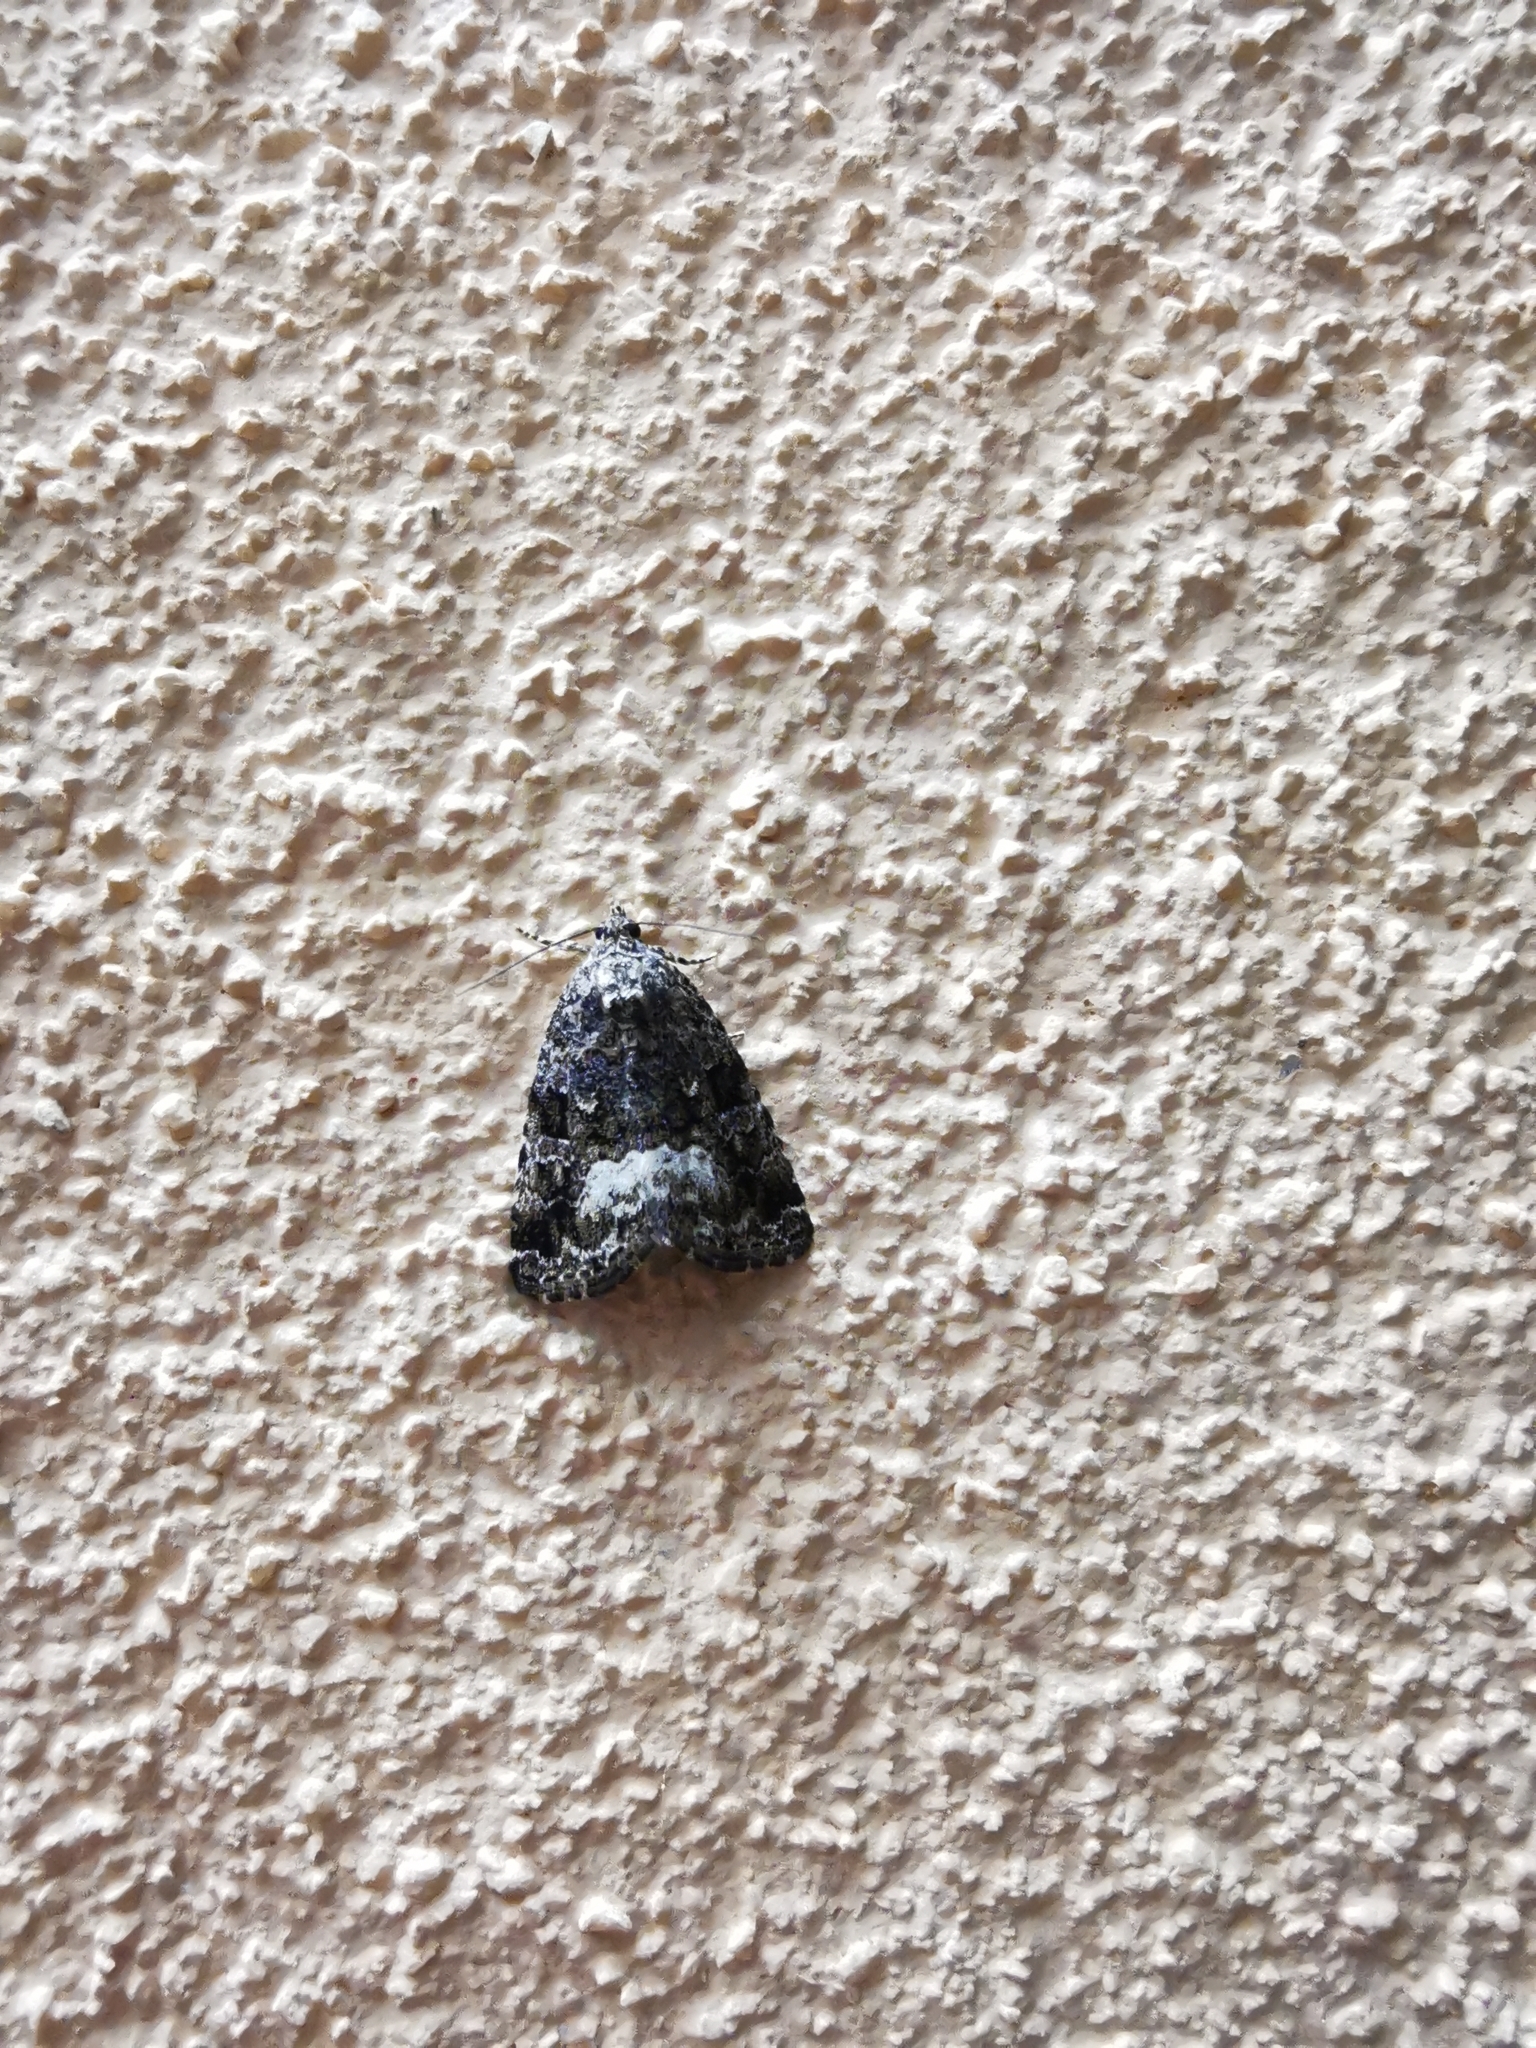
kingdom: Animalia
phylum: Arthropoda
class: Insecta
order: Lepidoptera
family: Noctuidae
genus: Deltote
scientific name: Deltote pygarga
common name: Marbled white spot
